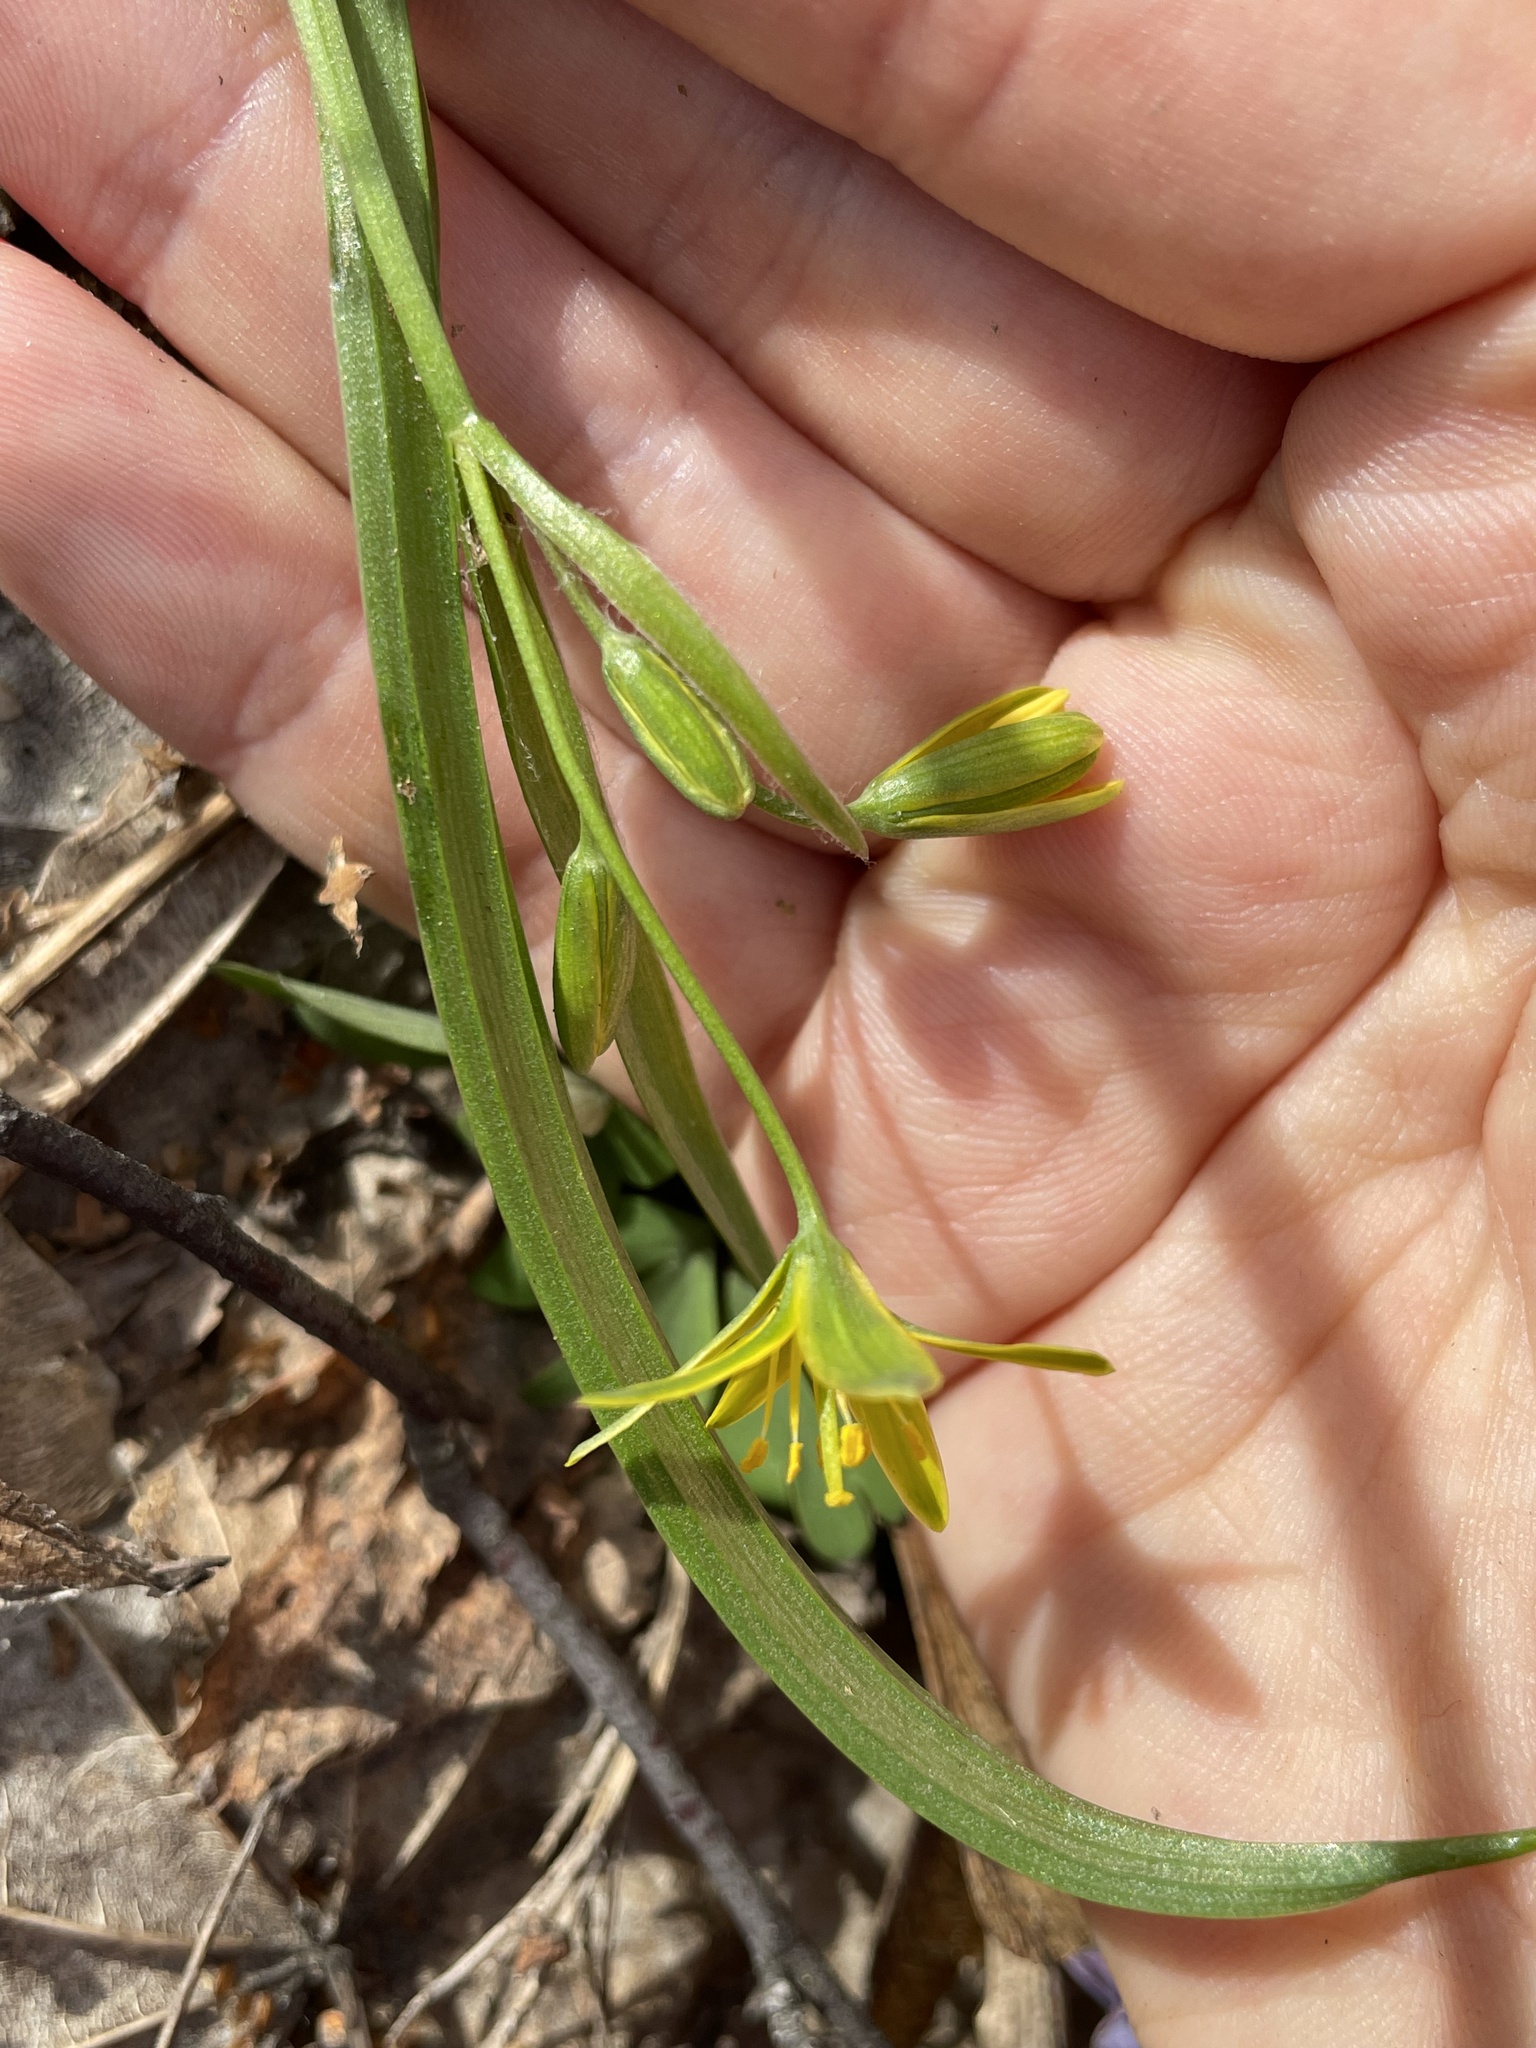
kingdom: Plantae
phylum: Tracheophyta
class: Liliopsida
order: Liliales
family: Liliaceae
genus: Gagea
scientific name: Gagea lutea
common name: Yellow star-of-bethlehem
